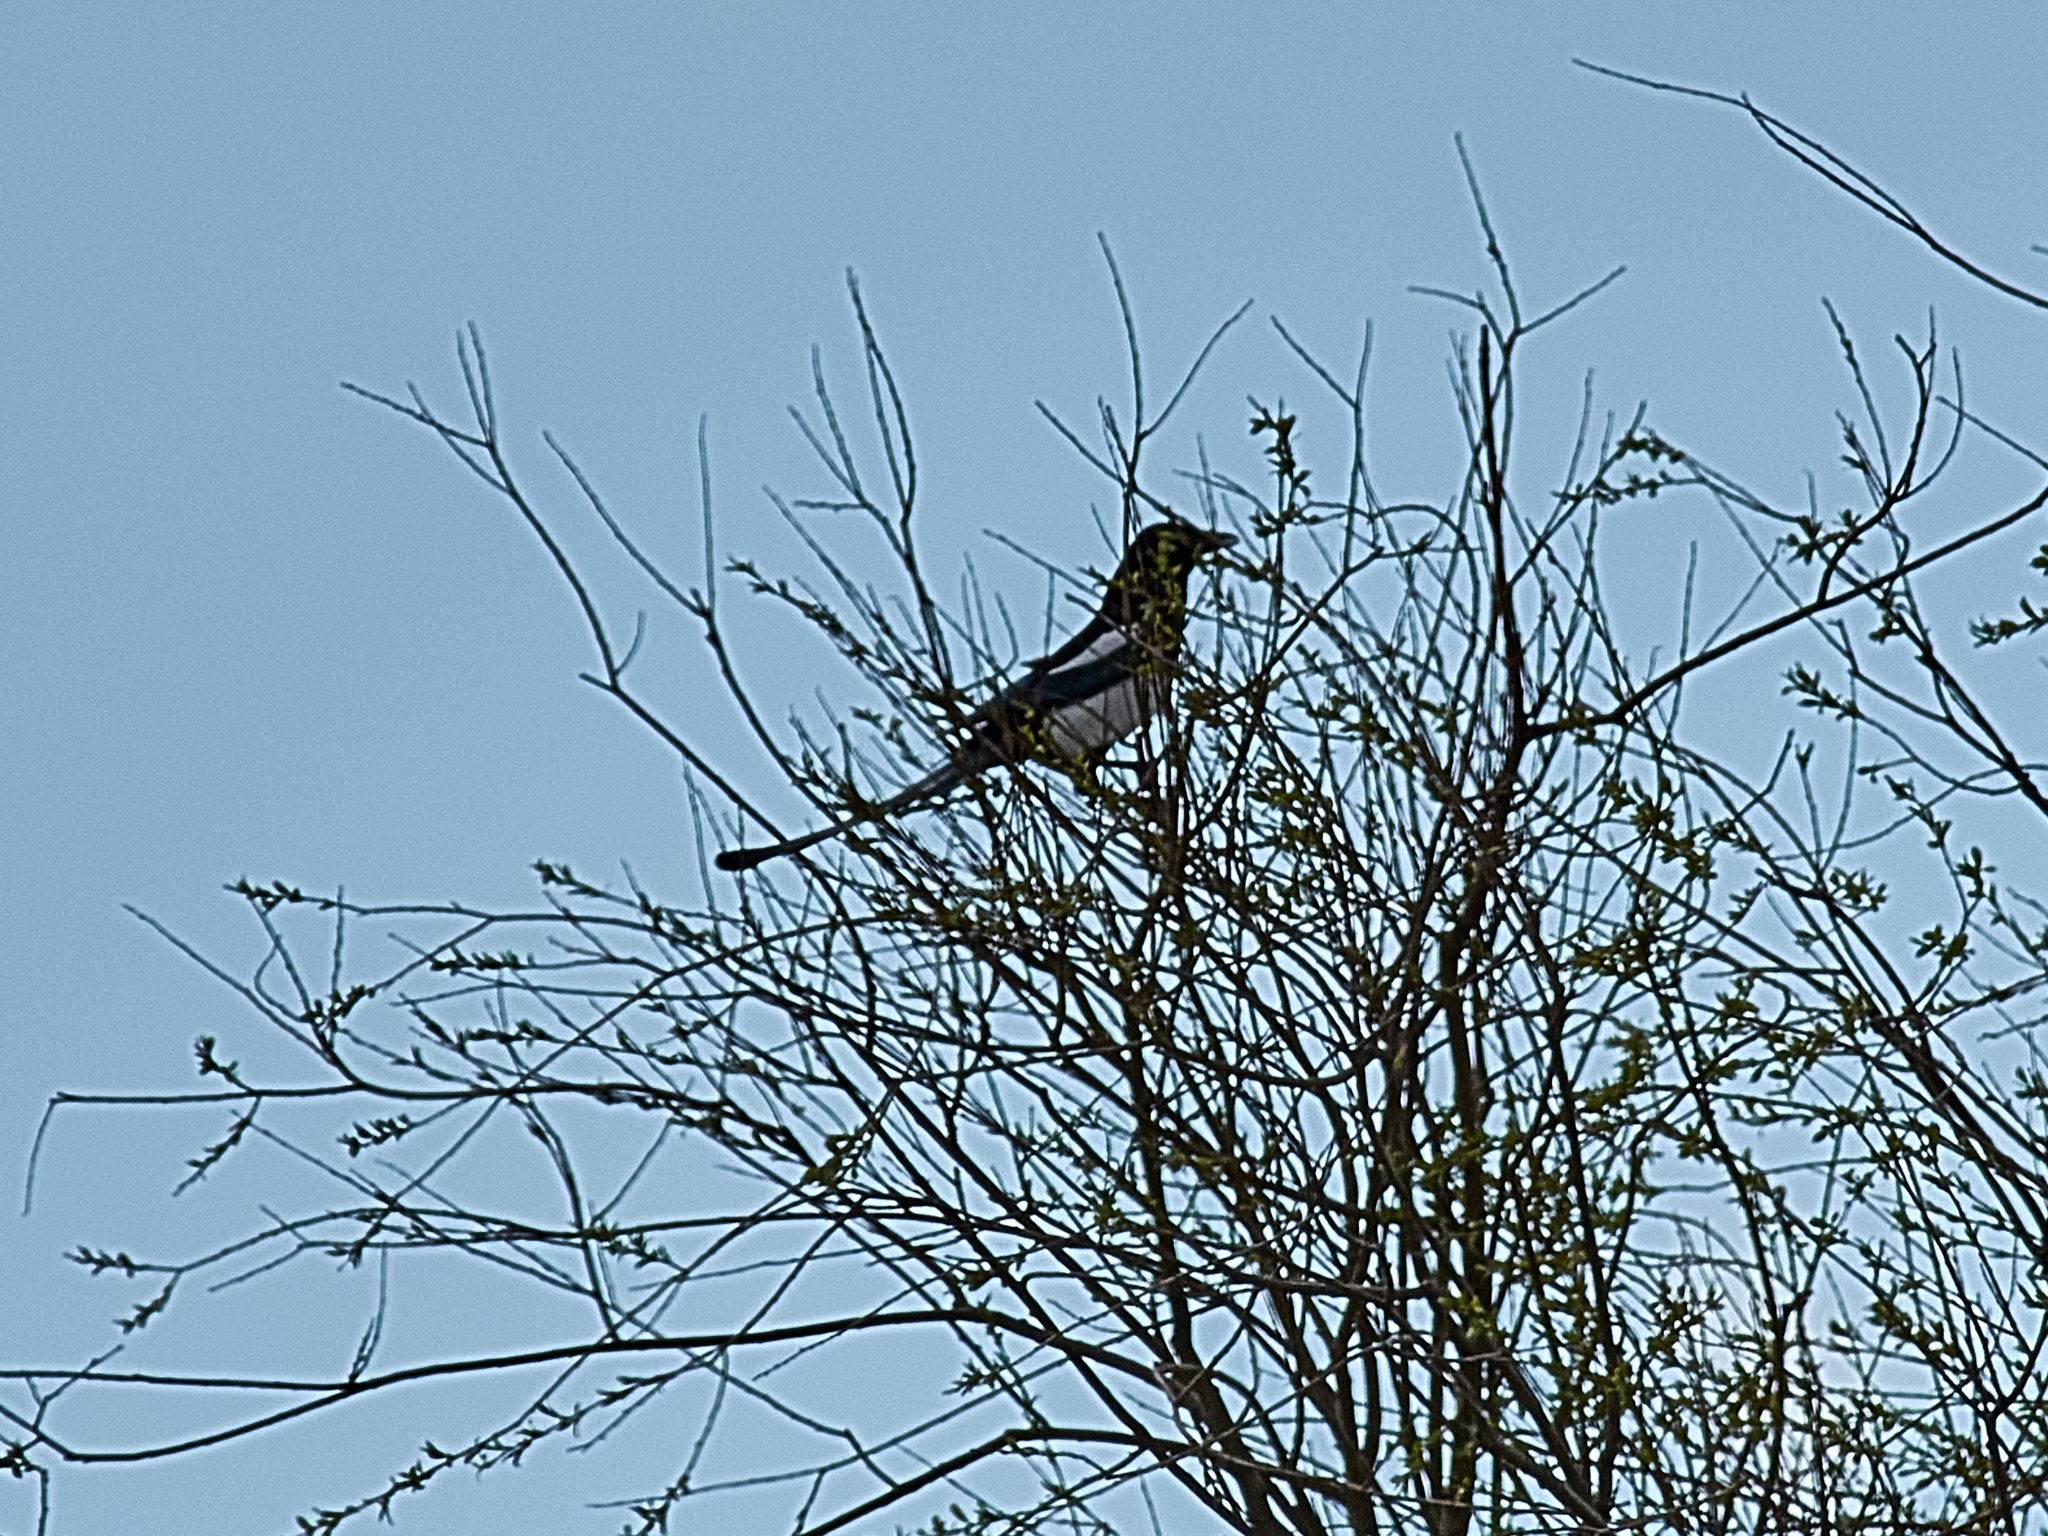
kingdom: Animalia
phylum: Chordata
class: Aves
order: Passeriformes
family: Corvidae
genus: Pica
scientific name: Pica pica
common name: Eurasian magpie
